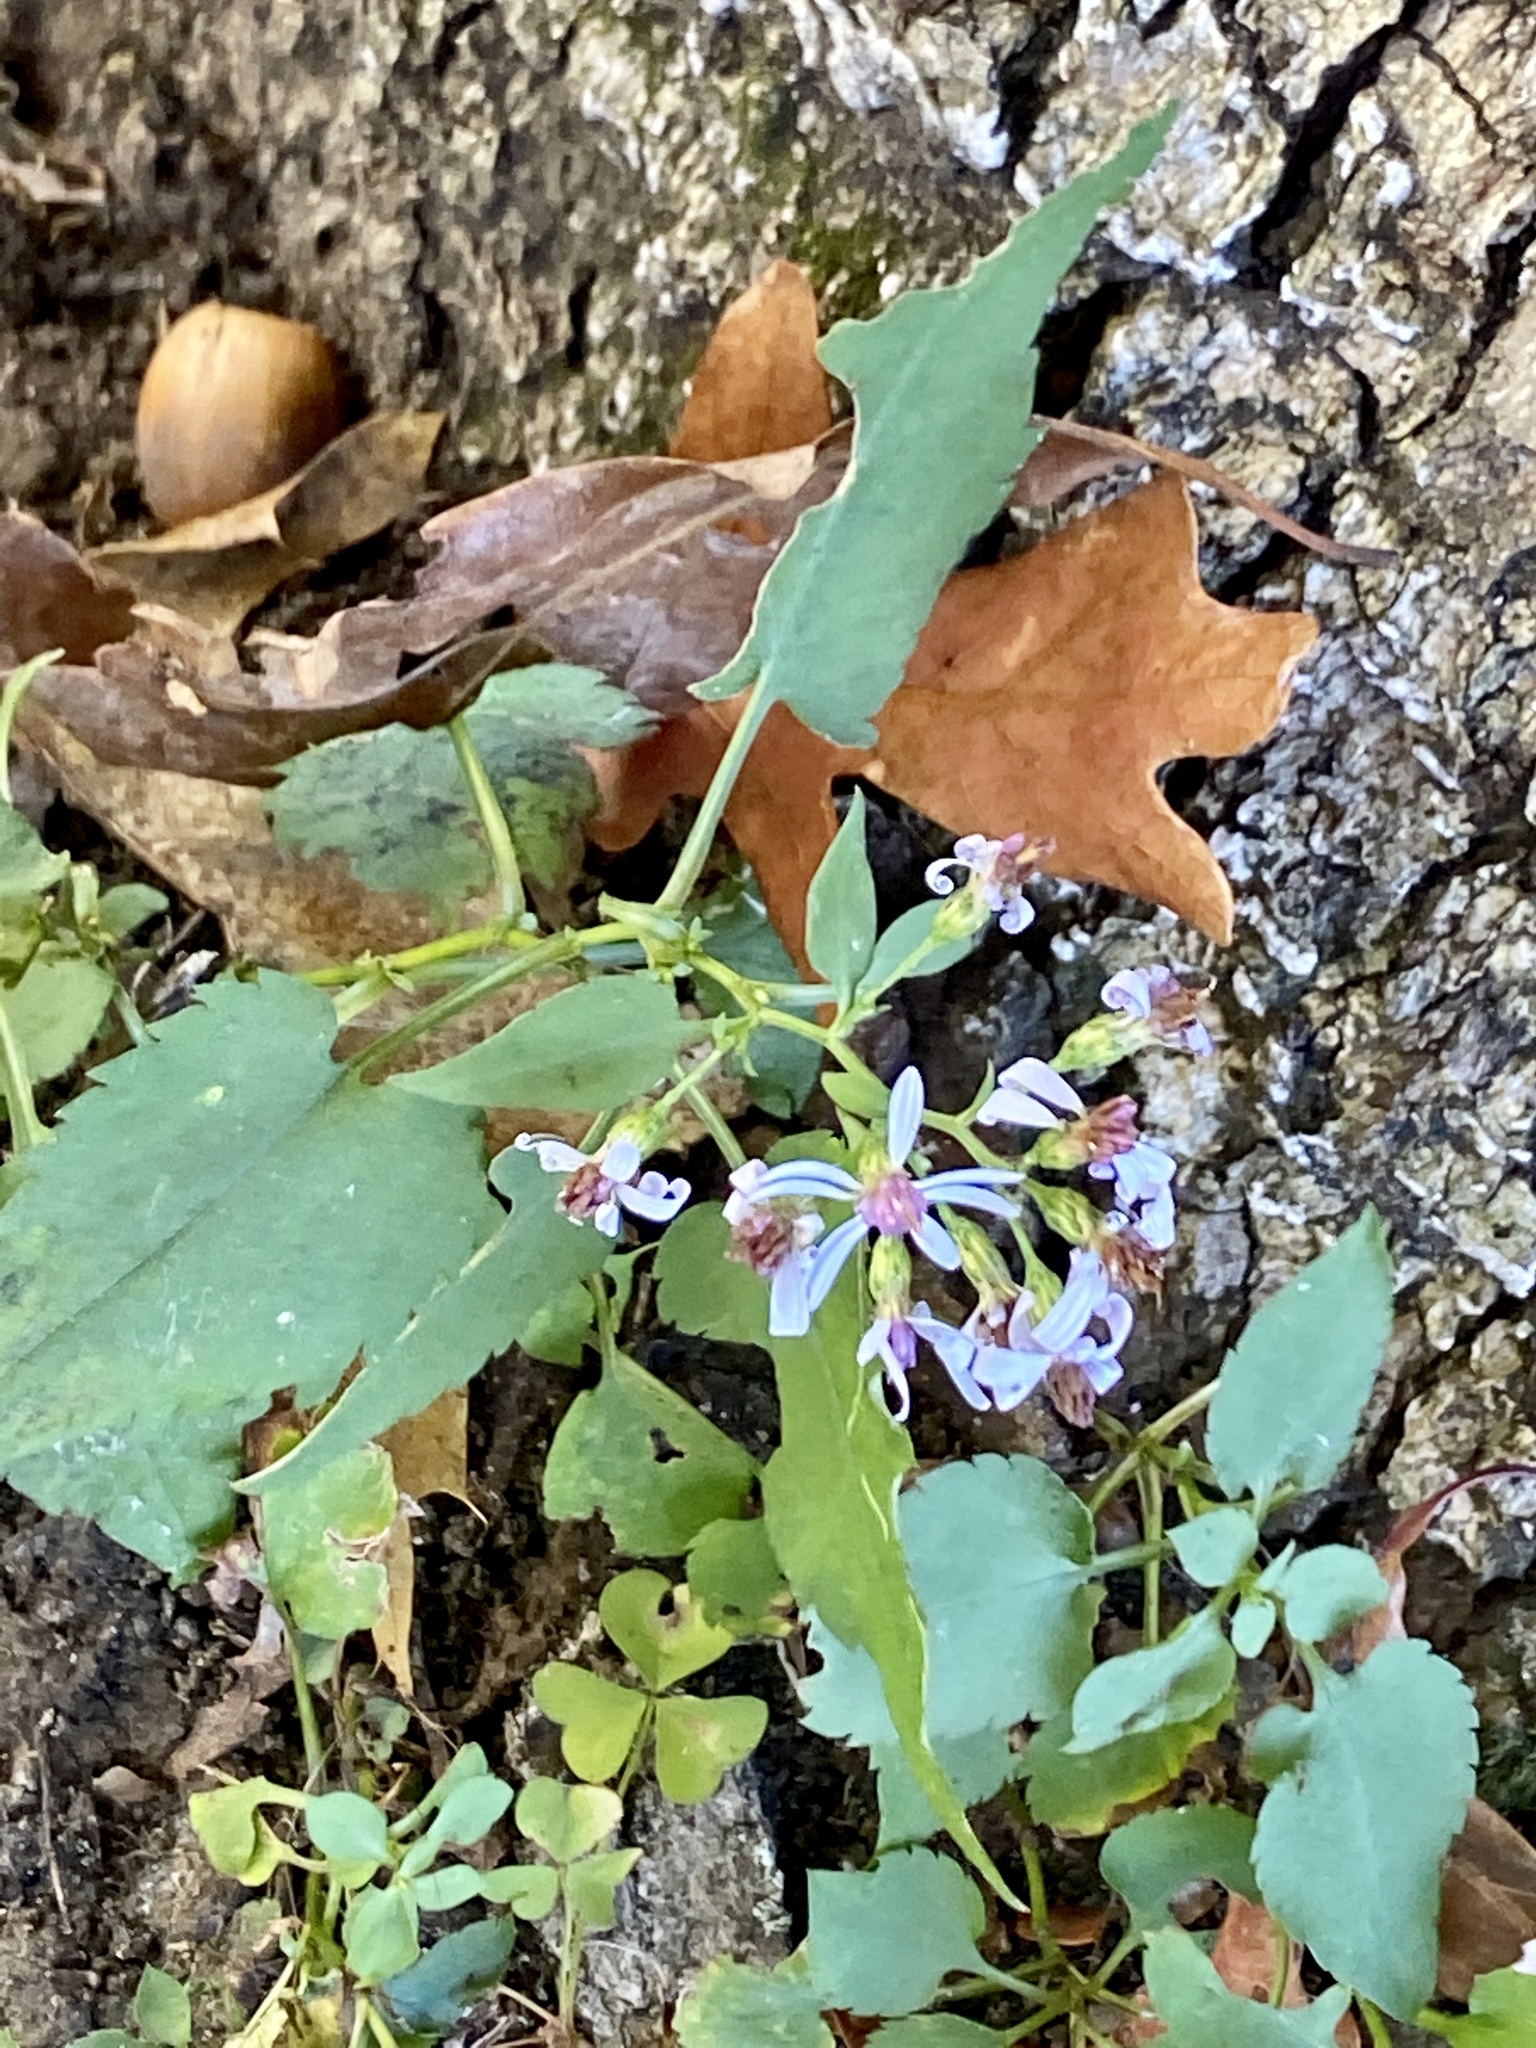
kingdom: Plantae
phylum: Tracheophyta
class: Magnoliopsida
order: Asterales
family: Asteraceae
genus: Symphyotrichum
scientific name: Symphyotrichum cordifolium
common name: Beeweed
